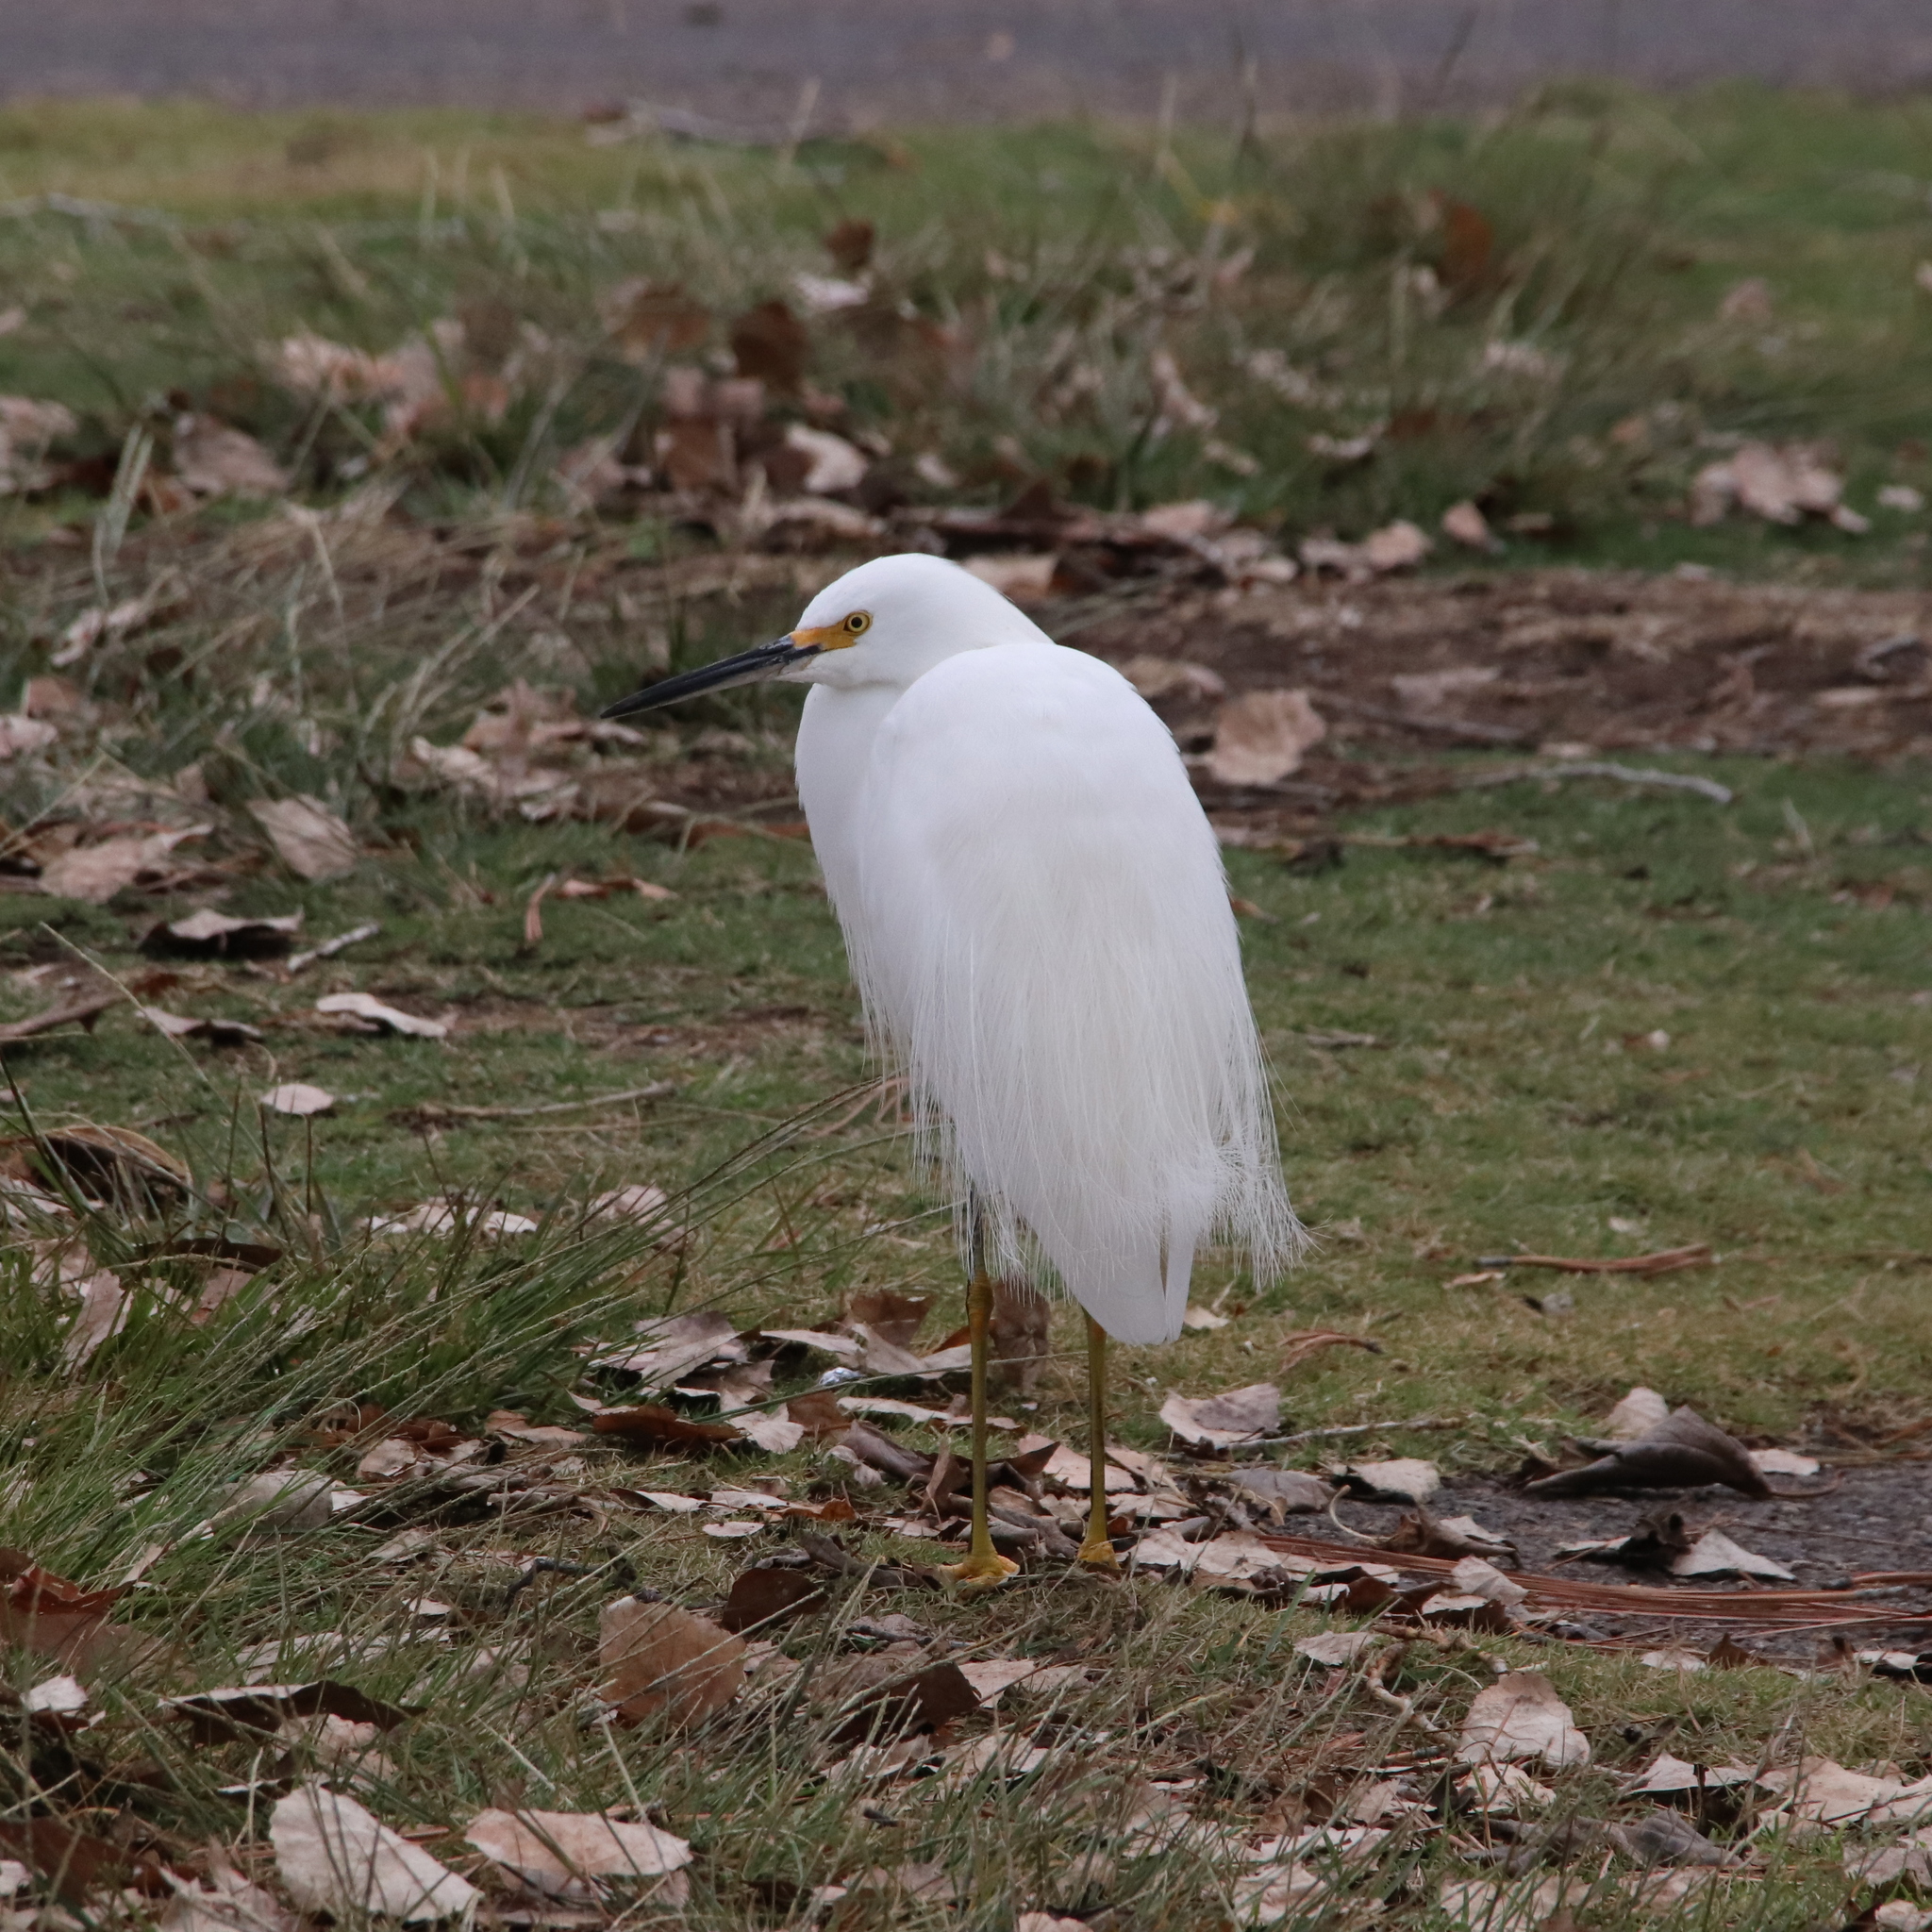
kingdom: Animalia
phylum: Chordata
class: Aves
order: Pelecaniformes
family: Ardeidae
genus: Egretta
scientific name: Egretta thula
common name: Snowy egret
